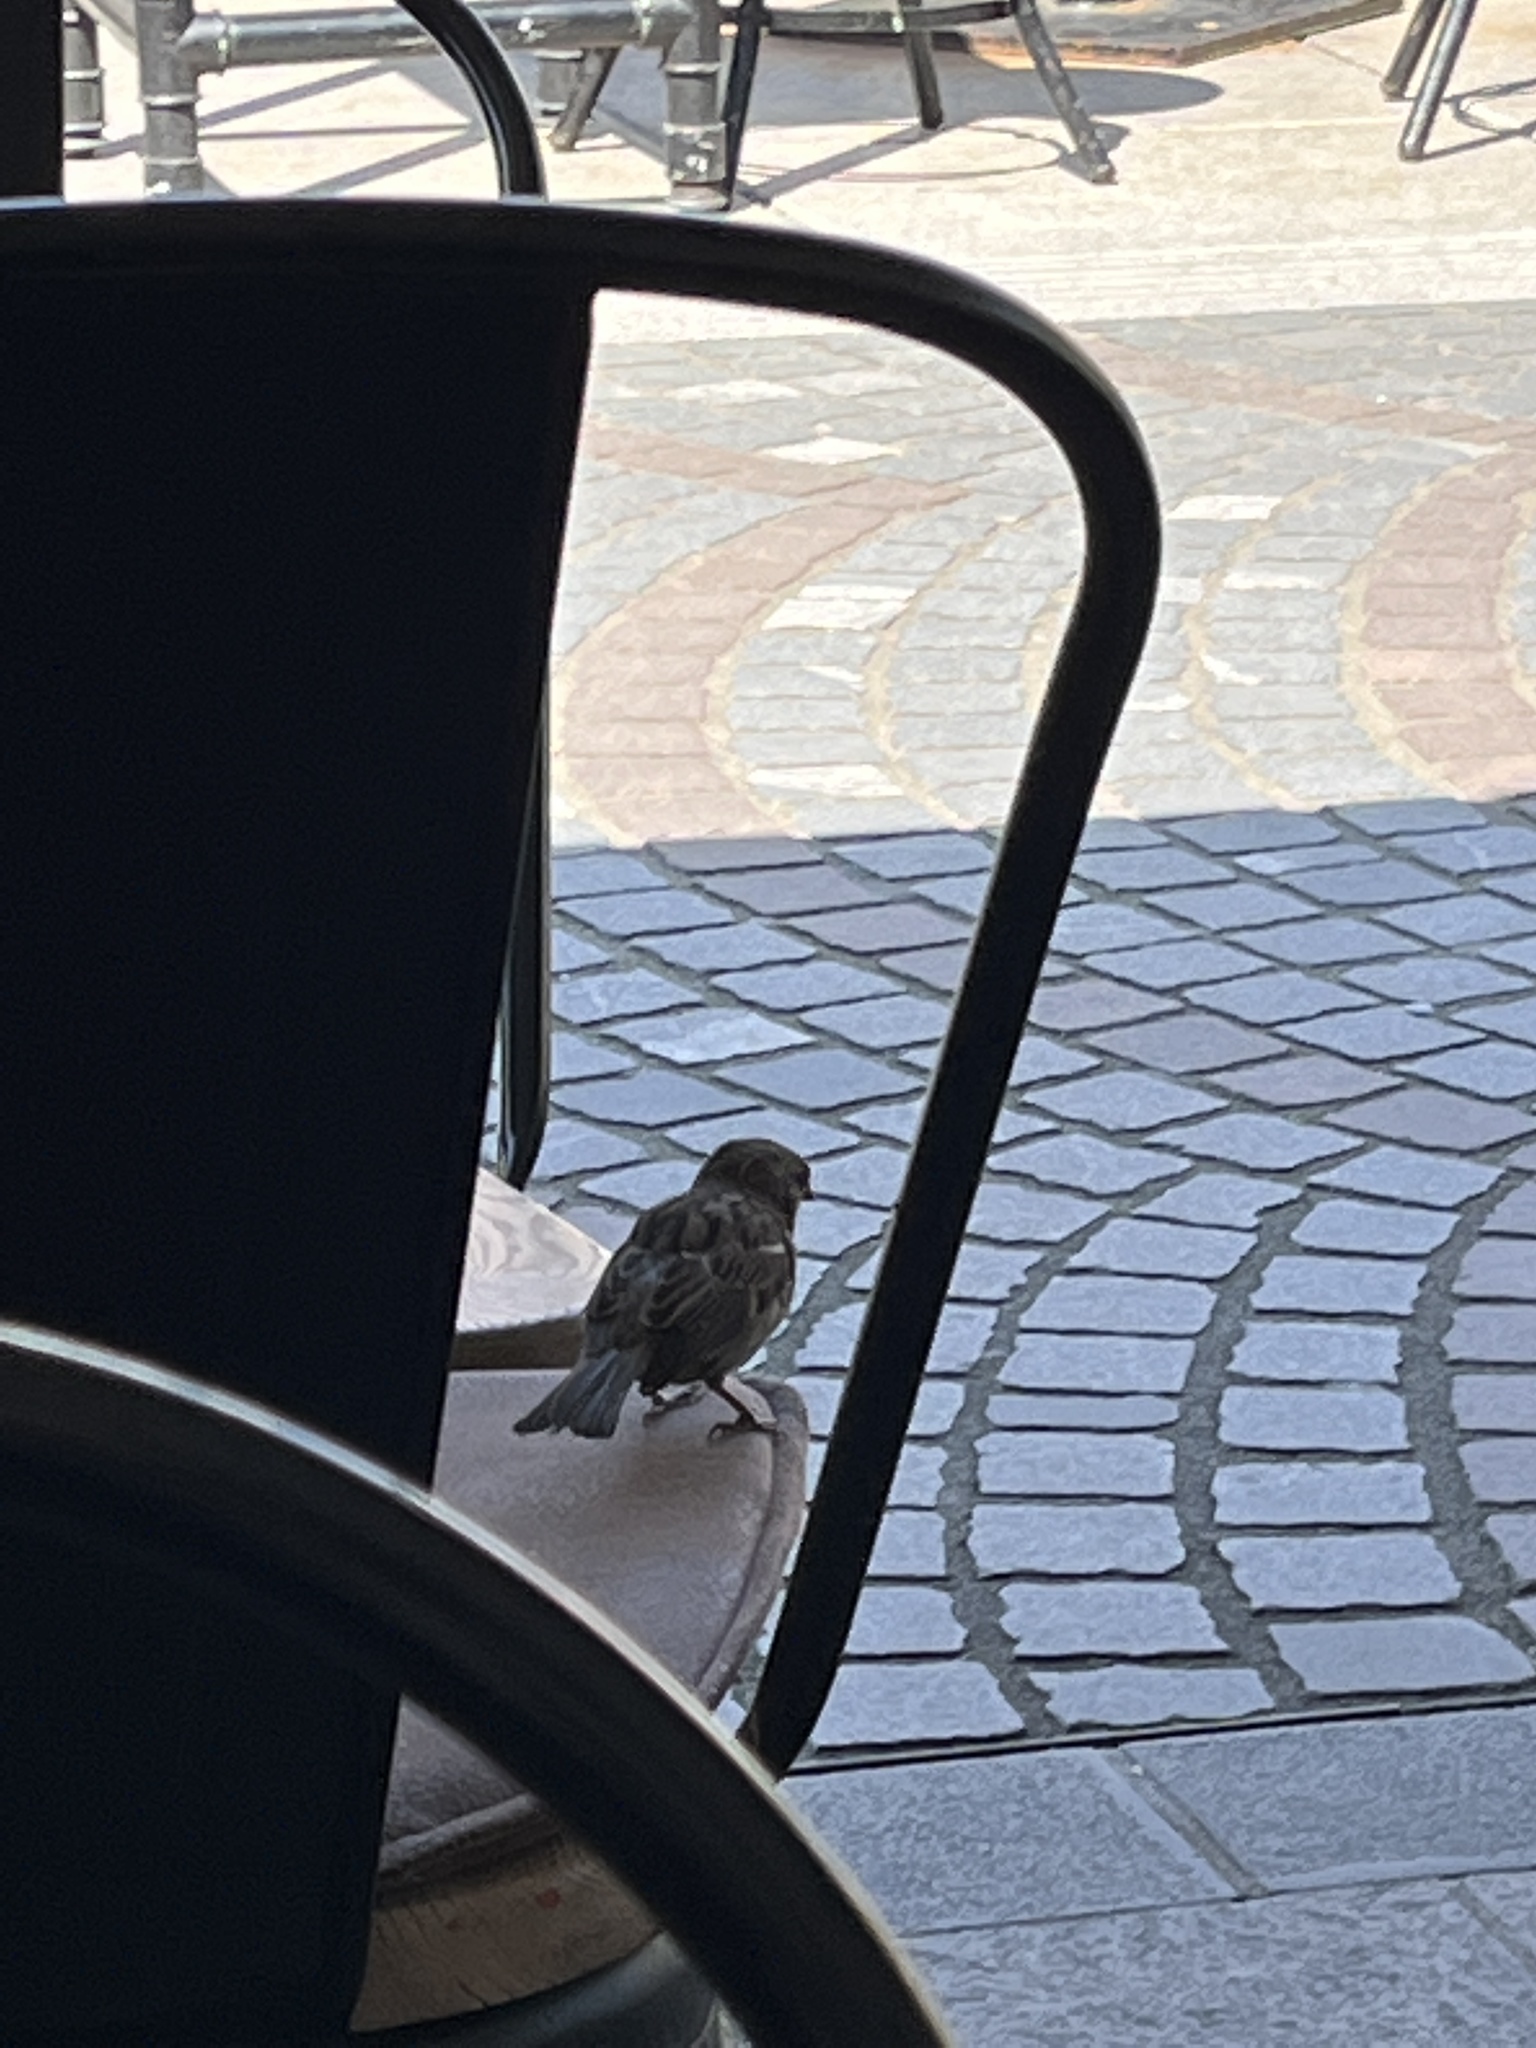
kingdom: Animalia
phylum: Chordata
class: Aves
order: Passeriformes
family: Passeridae
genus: Passer
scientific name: Passer domesticus
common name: House sparrow
